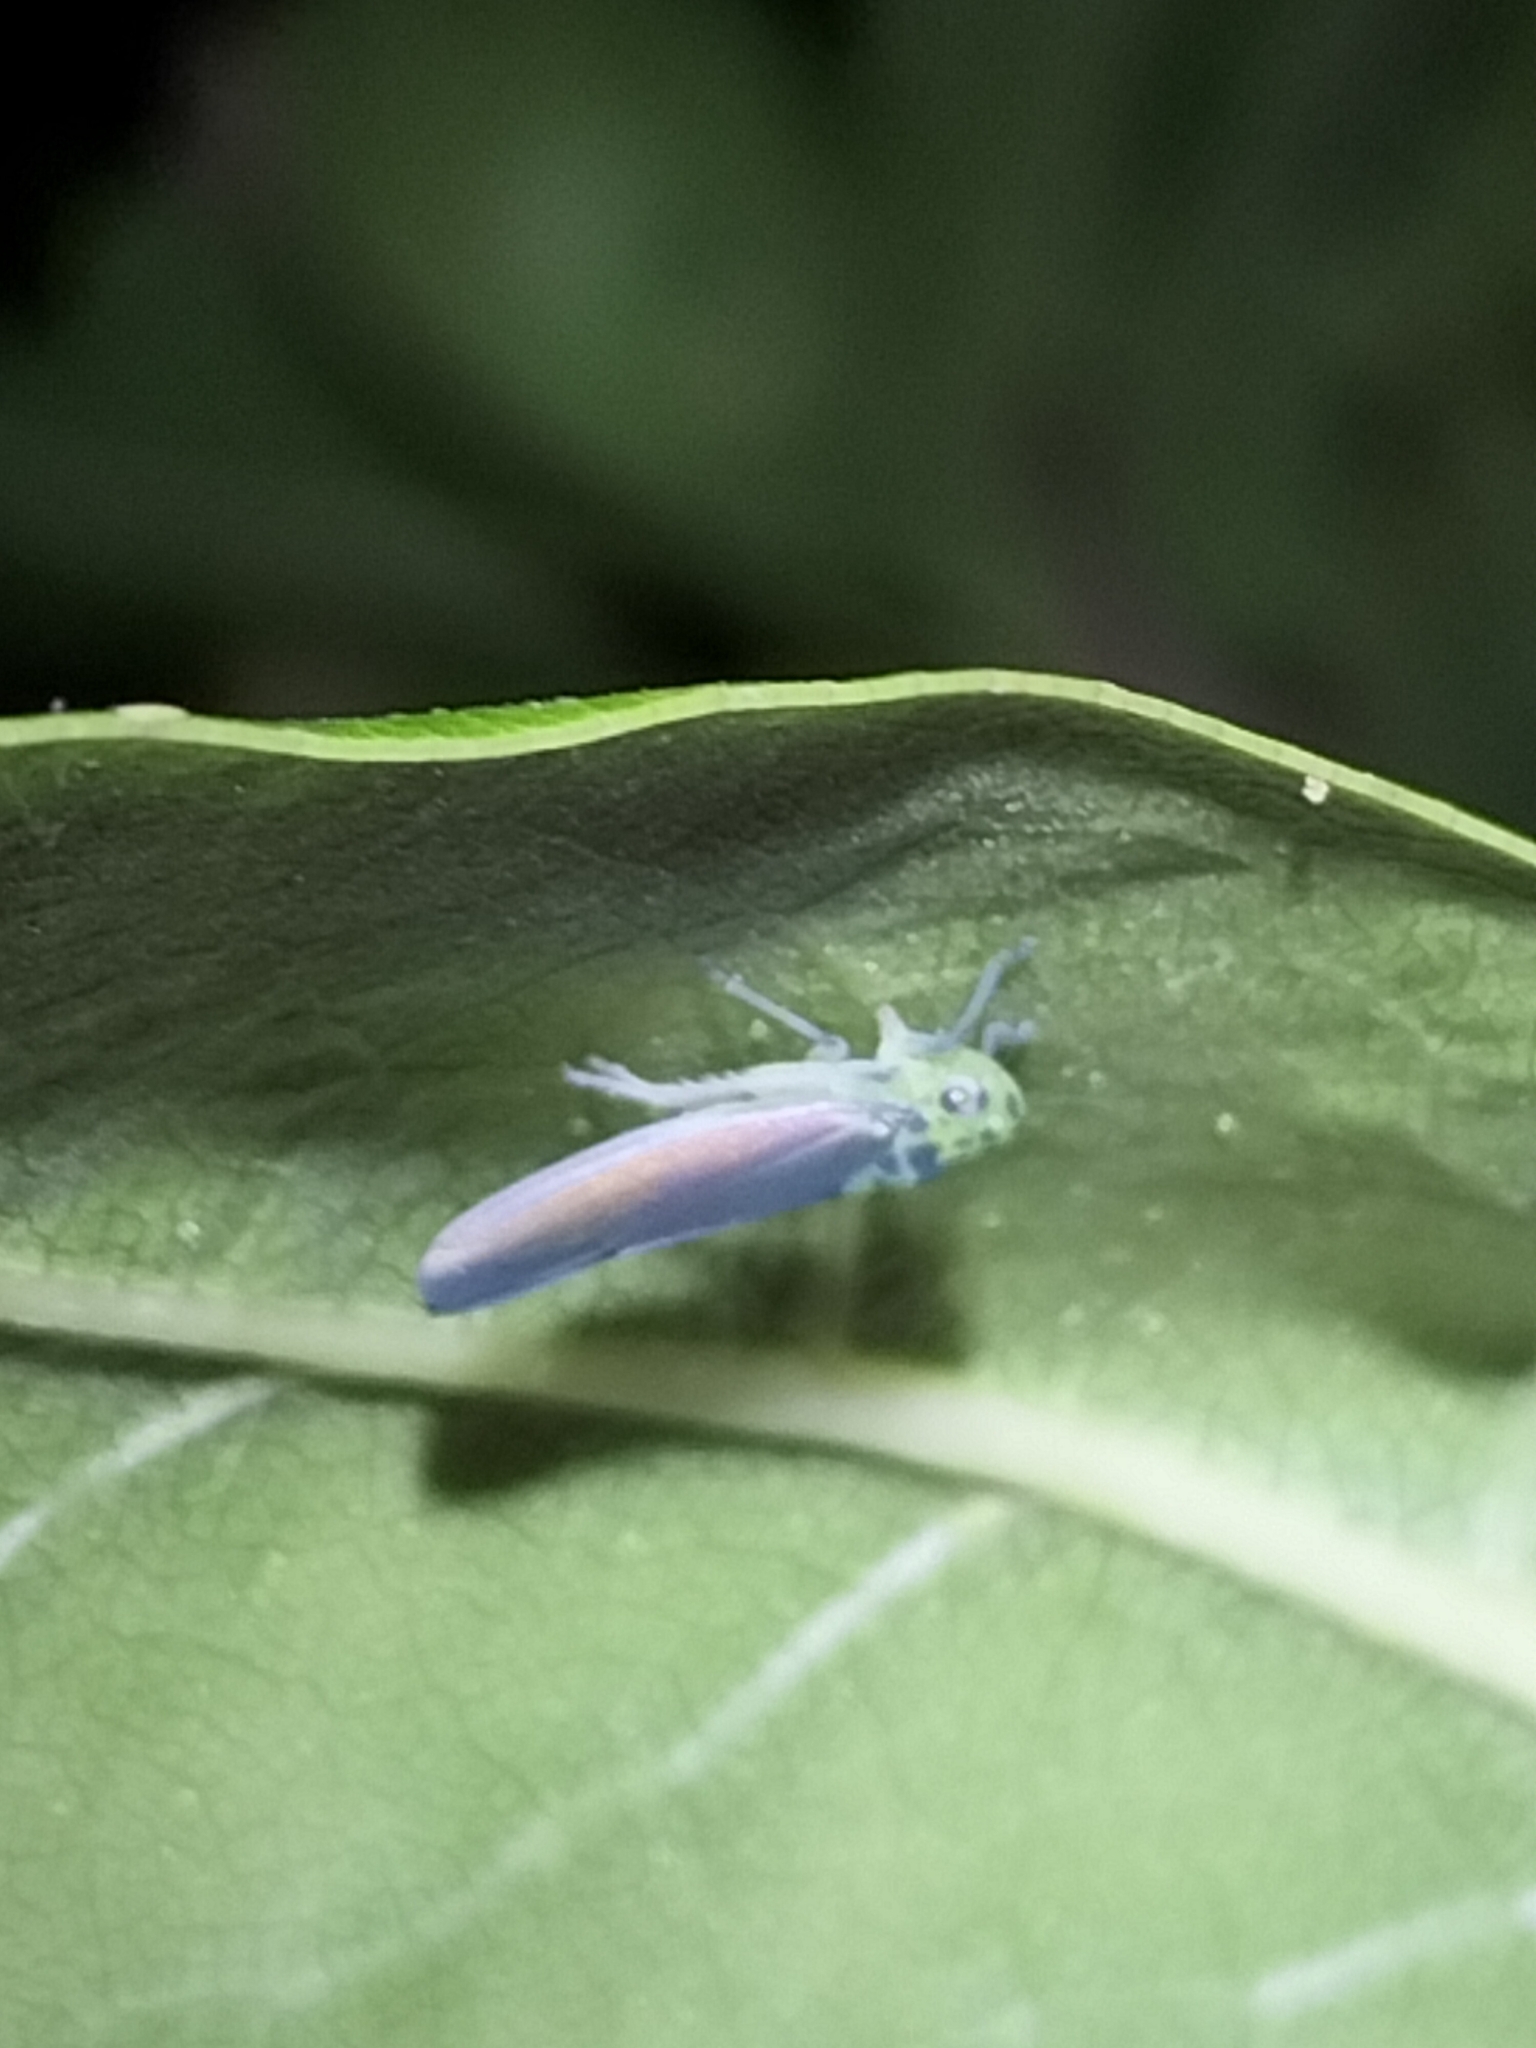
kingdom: Animalia
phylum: Arthropoda
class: Insecta
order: Hemiptera
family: Cicadellidae
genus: Ishidaella
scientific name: Ishidaella latomarginata
